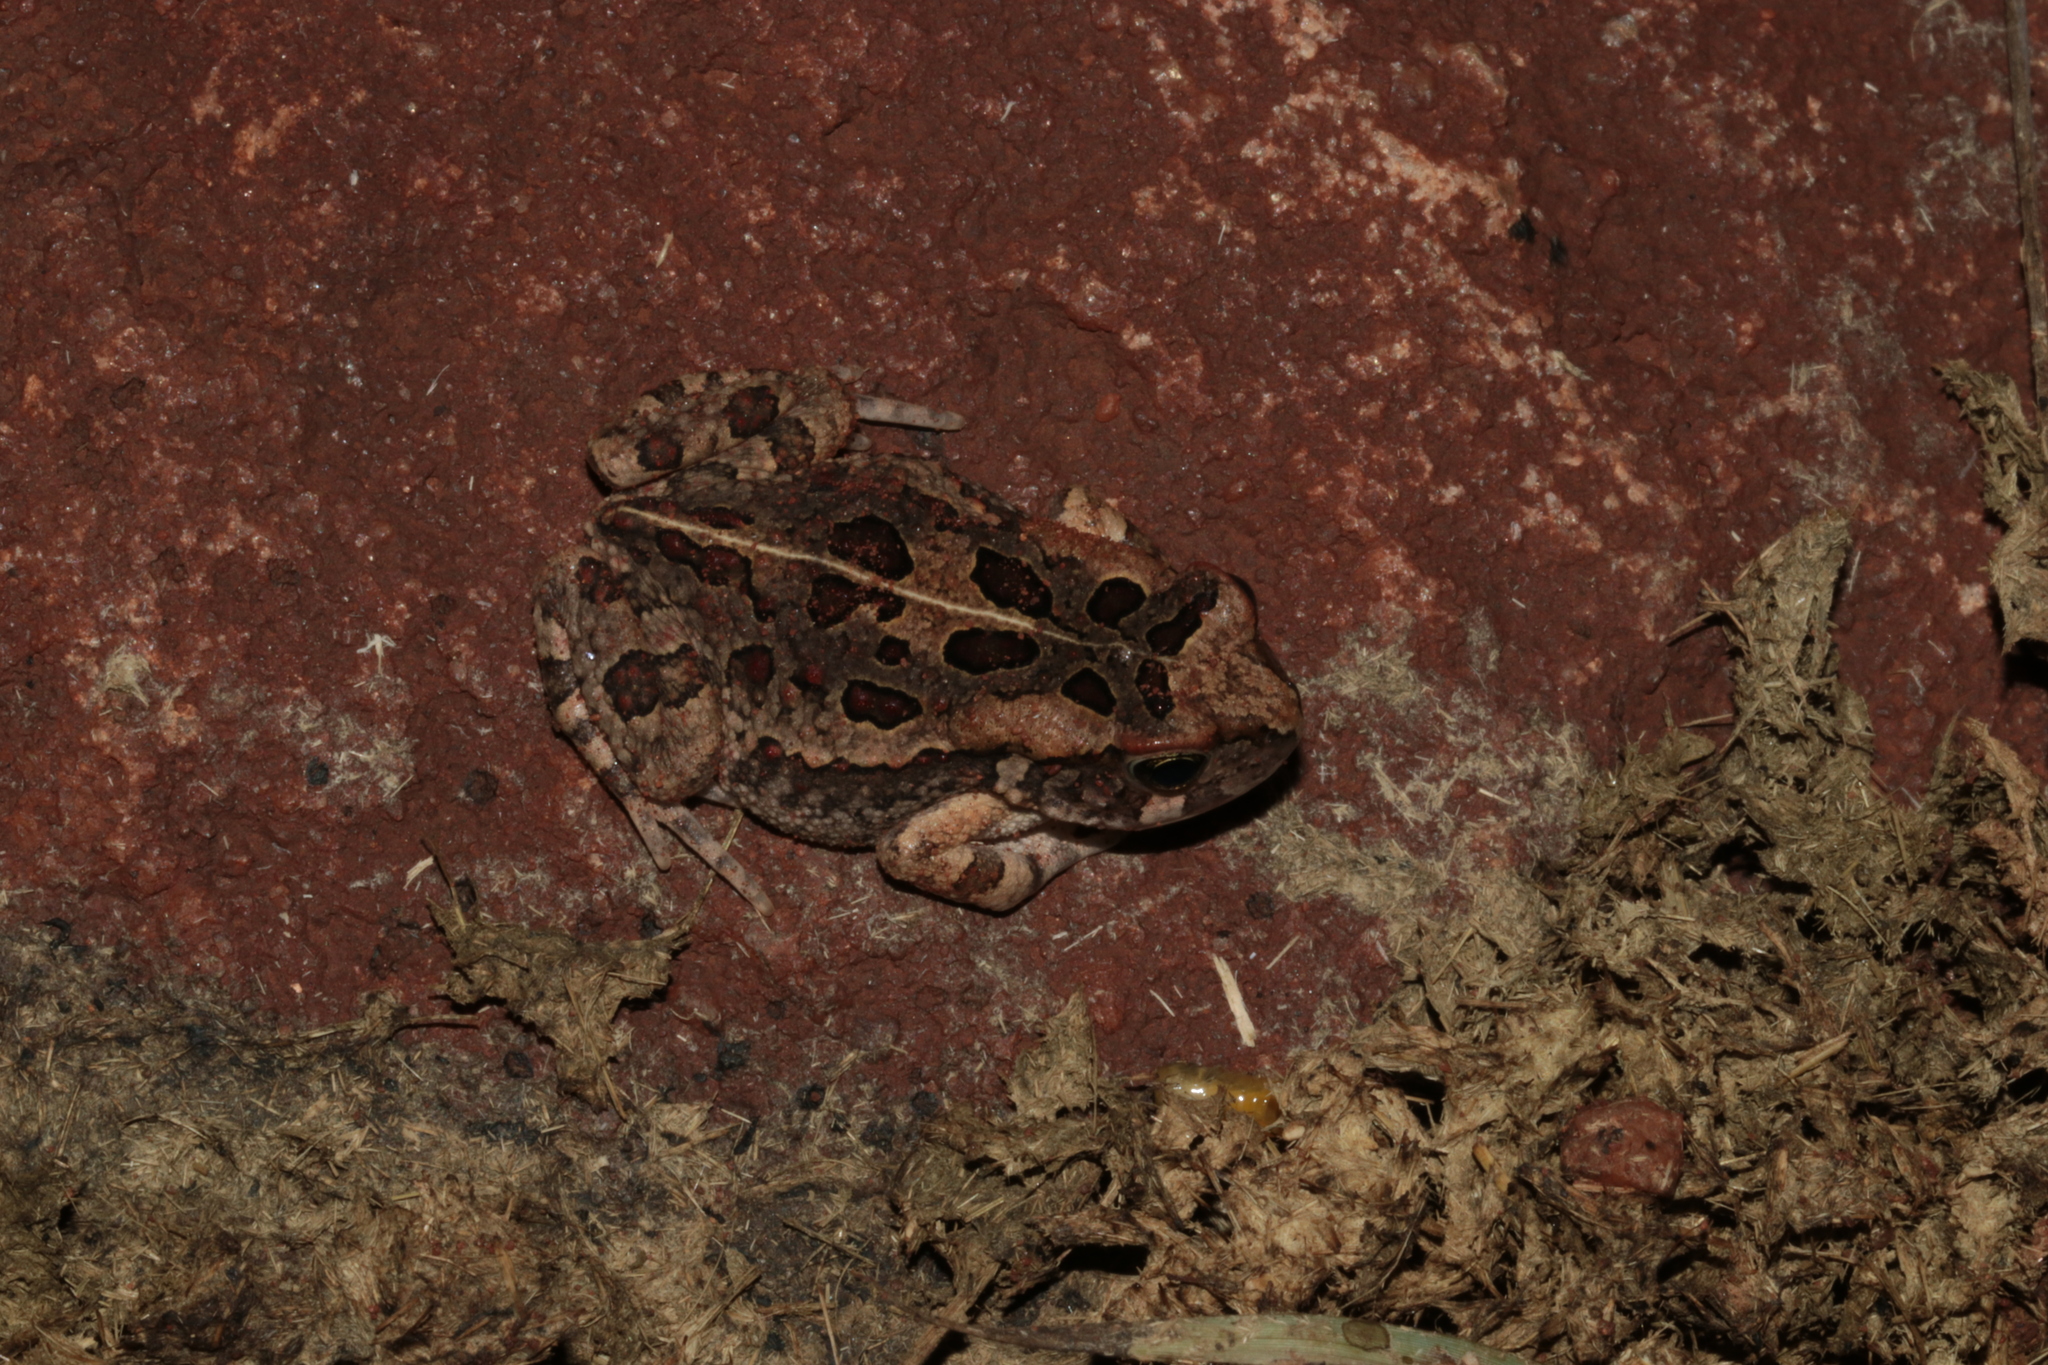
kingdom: Animalia
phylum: Chordata
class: Amphibia
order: Anura
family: Bufonidae
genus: Sclerophrys
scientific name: Sclerophrys garmani
